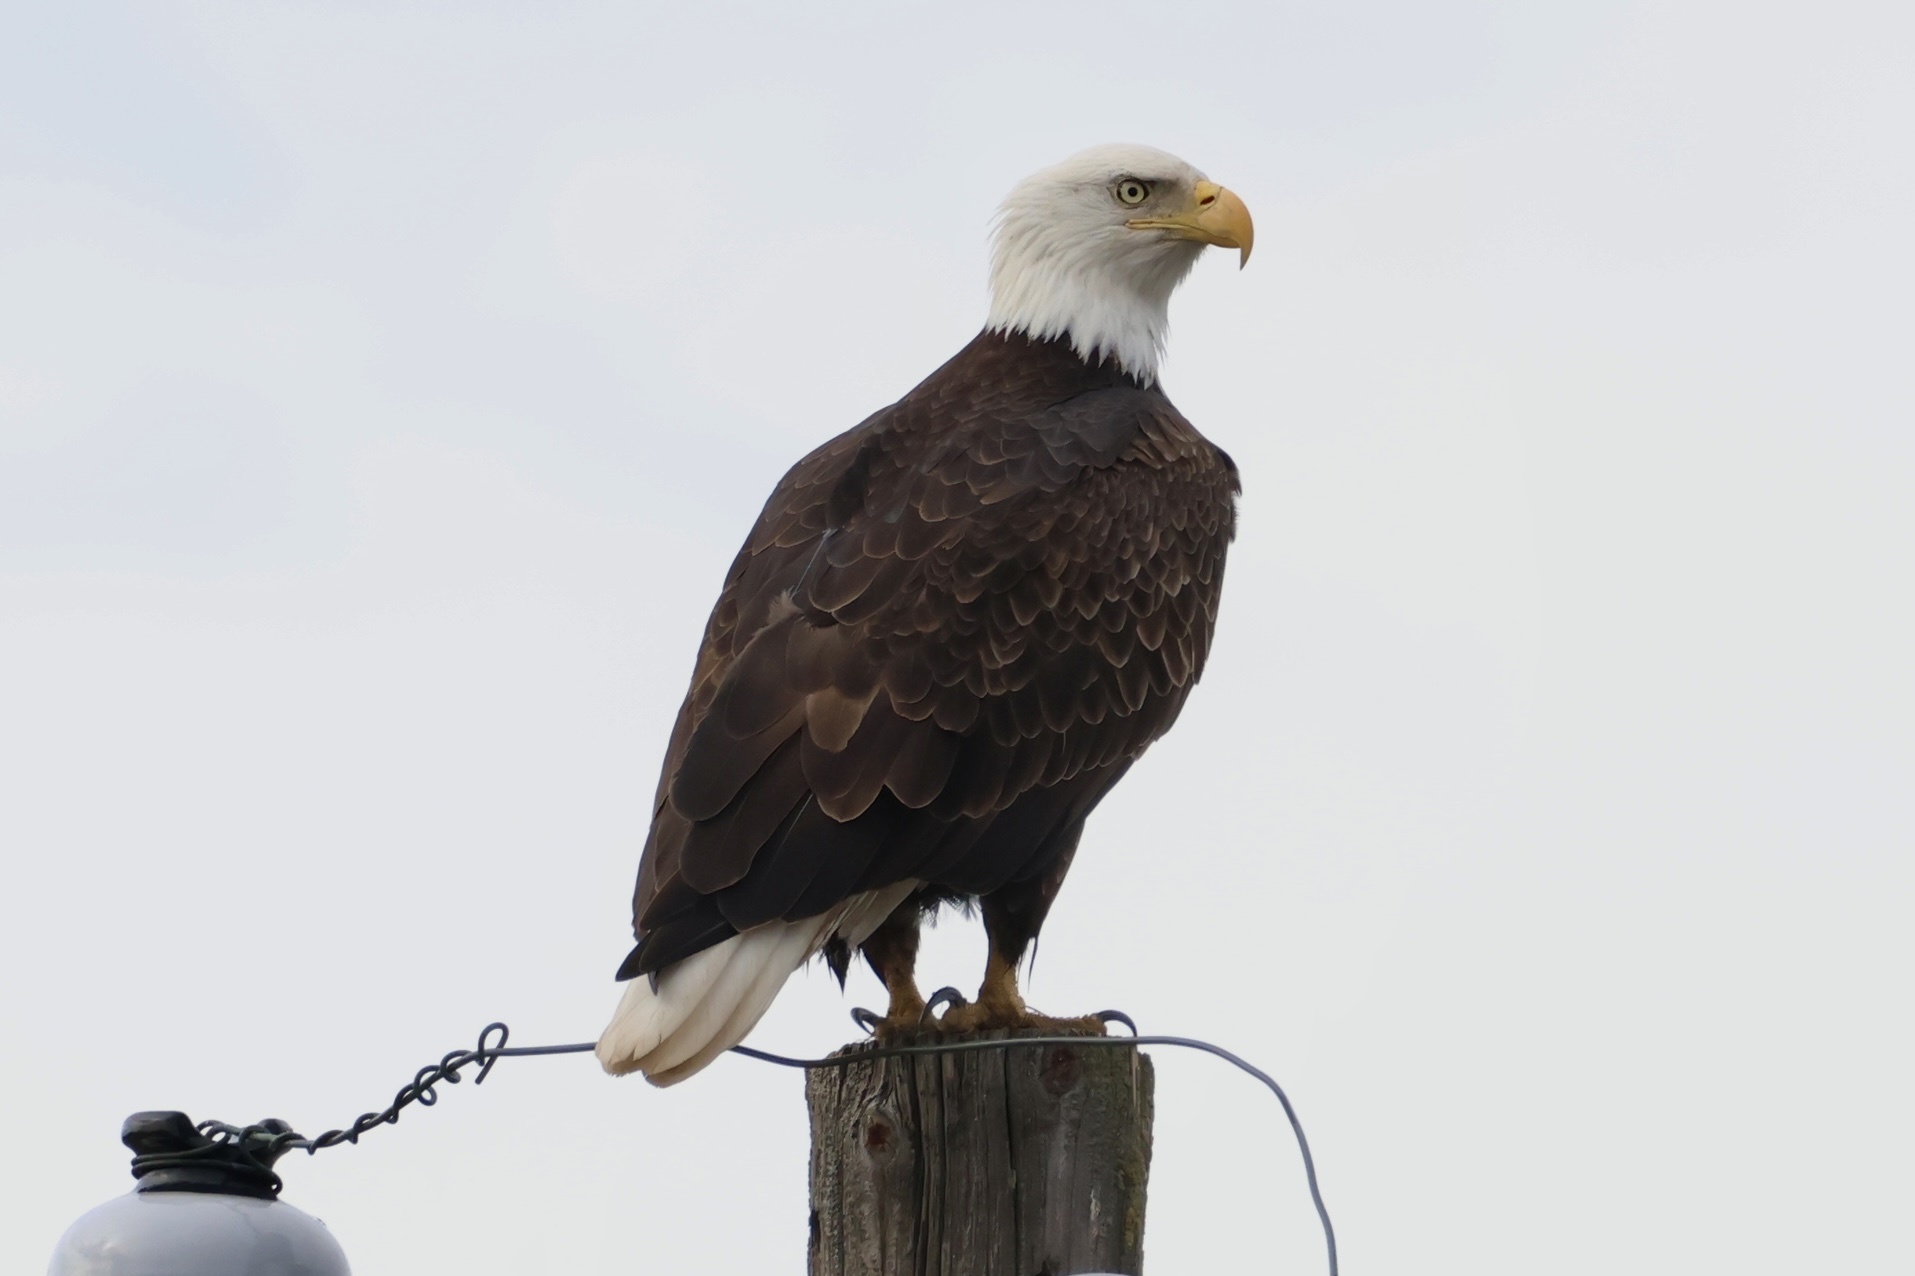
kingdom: Animalia
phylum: Chordata
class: Aves
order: Accipitriformes
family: Accipitridae
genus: Haliaeetus
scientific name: Haliaeetus leucocephalus
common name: Bald eagle
